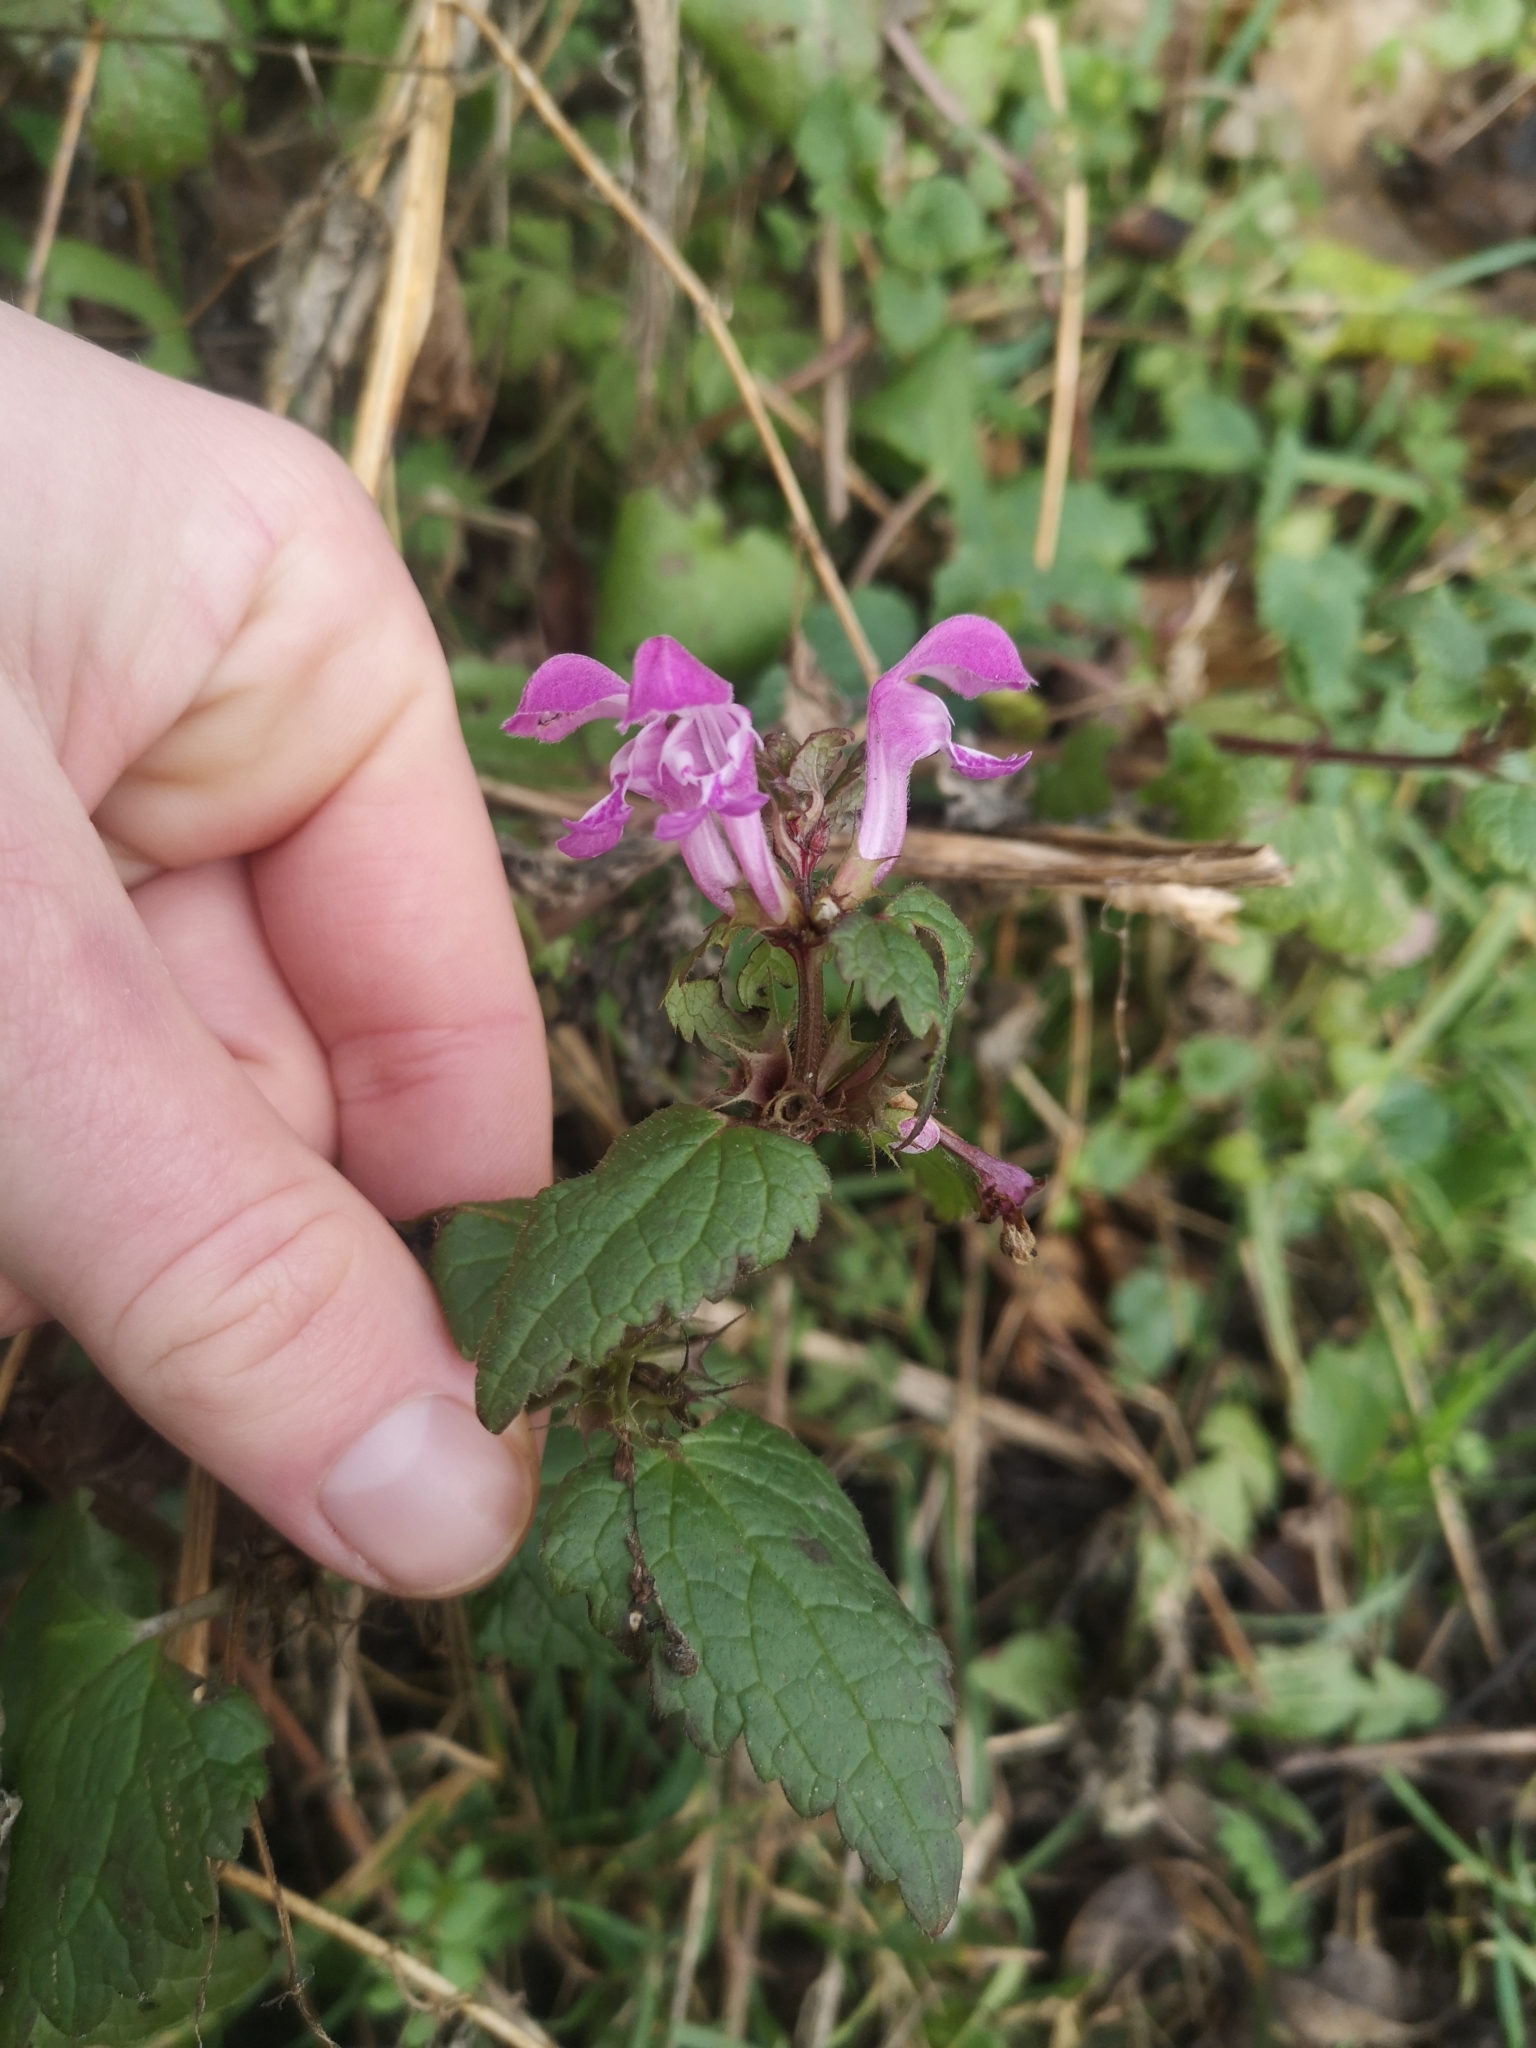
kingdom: Plantae
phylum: Tracheophyta
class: Magnoliopsida
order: Lamiales
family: Lamiaceae
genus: Lamium
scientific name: Lamium maculatum
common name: Spotted dead-nettle
